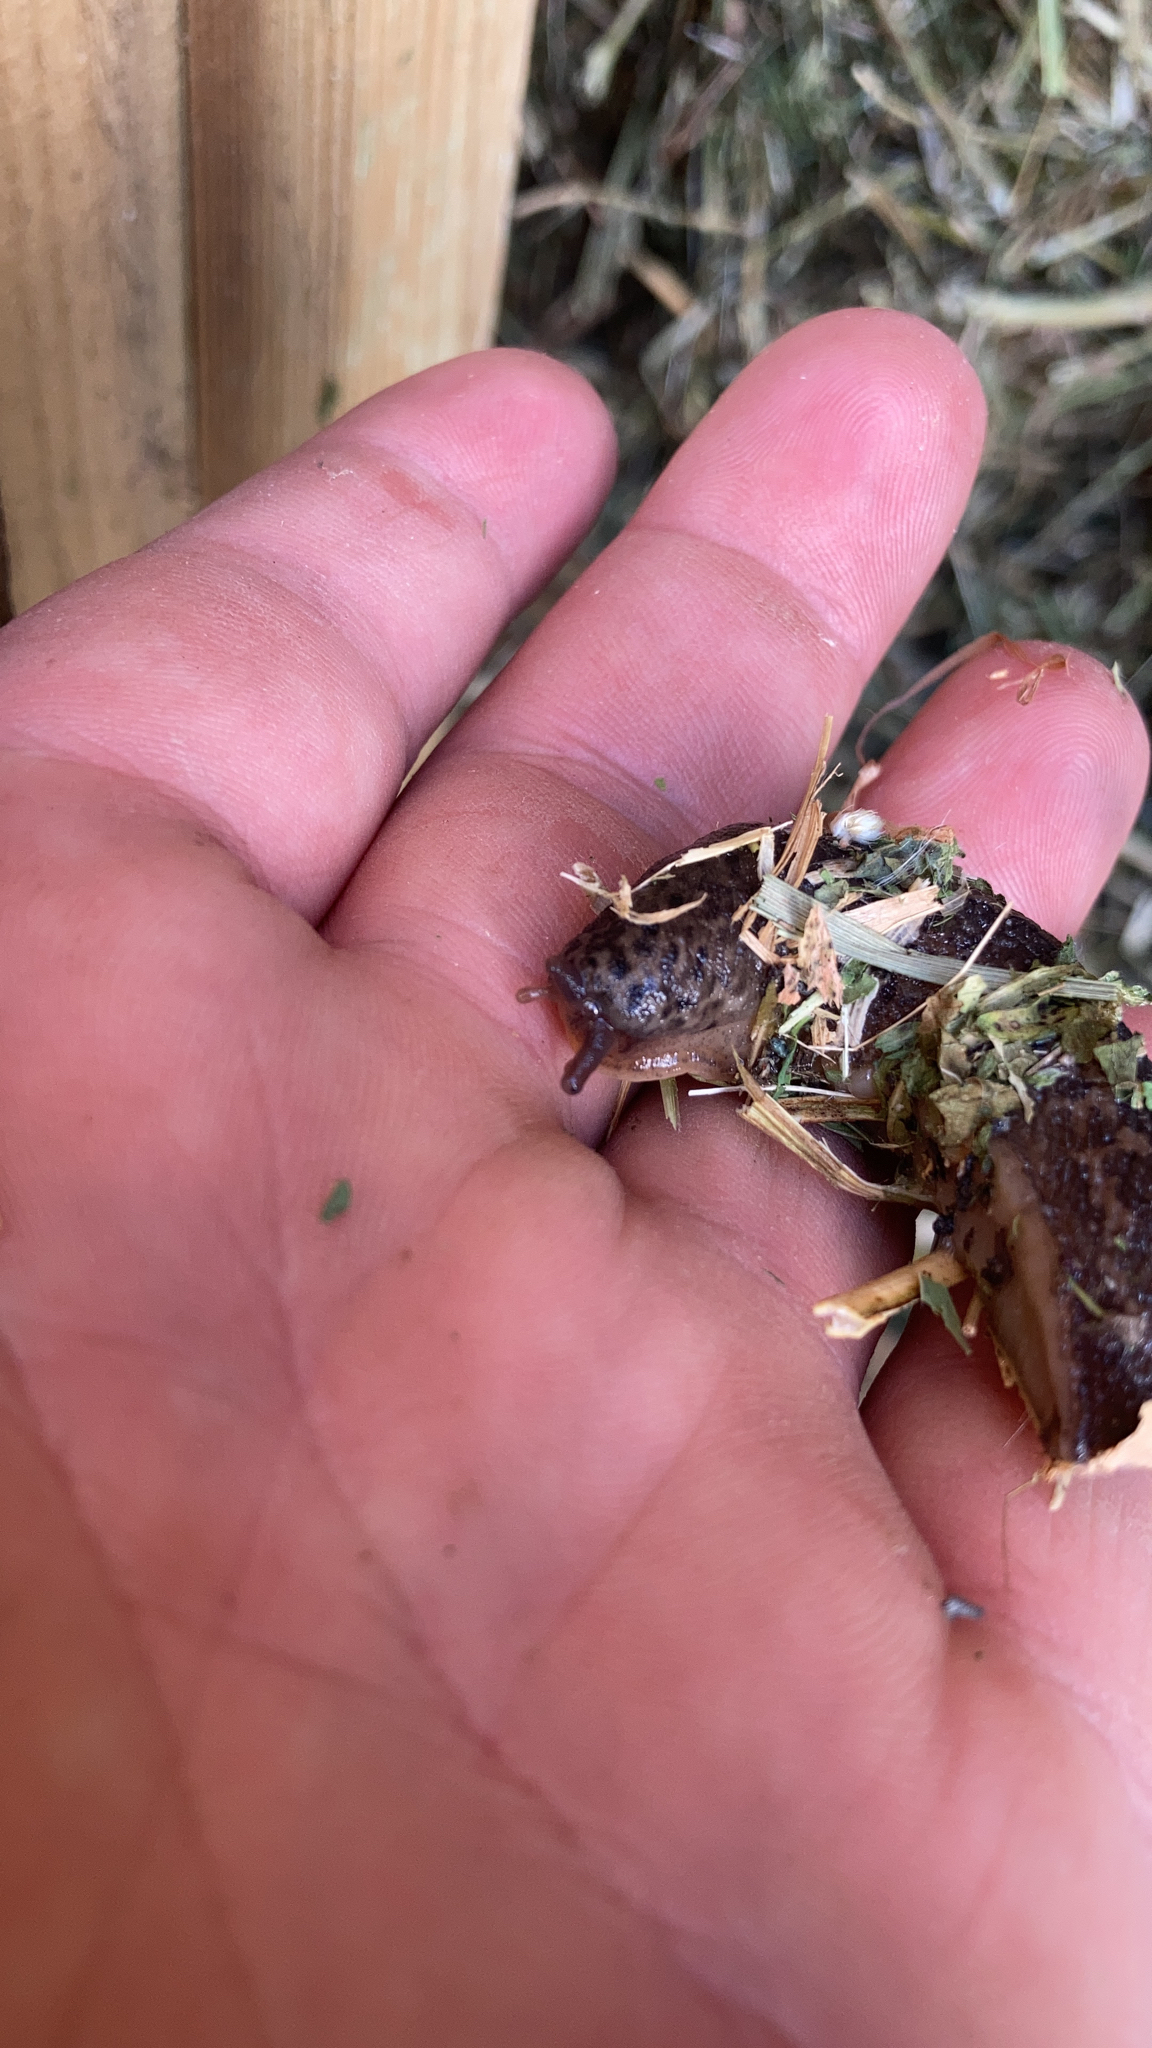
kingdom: Animalia
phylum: Mollusca
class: Gastropoda
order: Stylommatophora
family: Limacidae
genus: Limax
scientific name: Limax maximus
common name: Great grey slug
